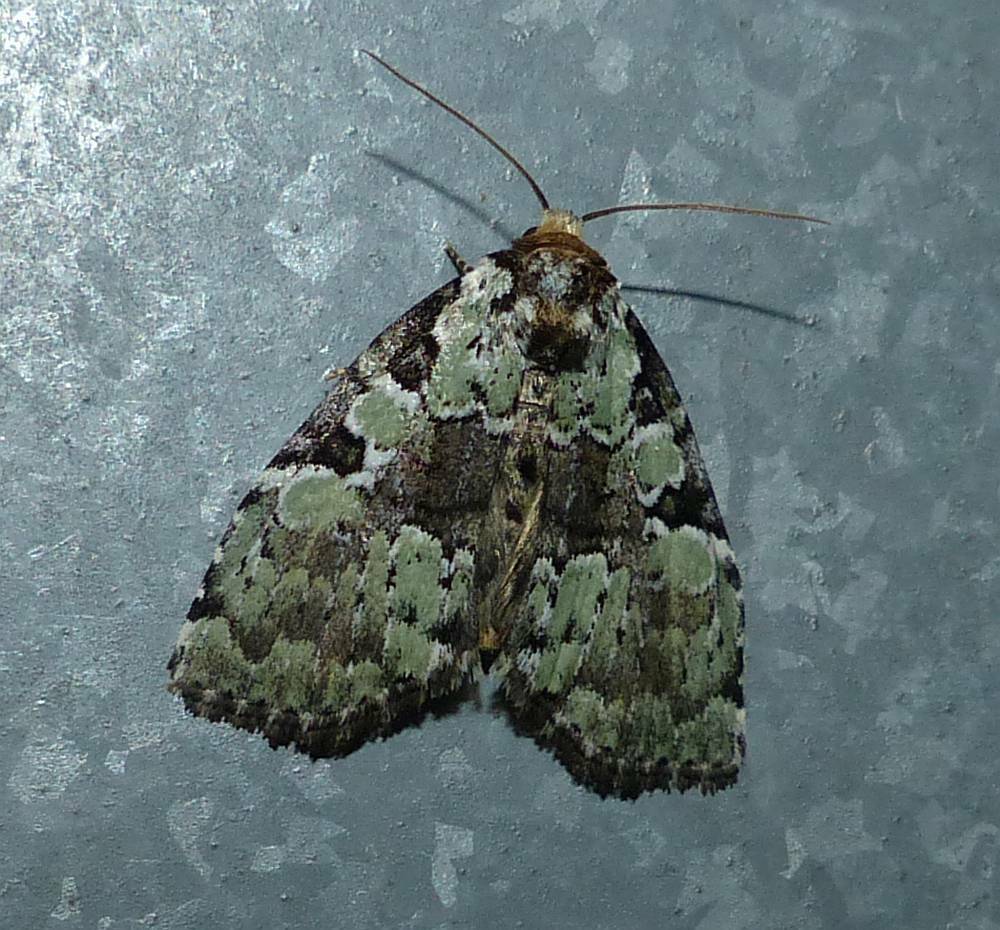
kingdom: Animalia
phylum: Arthropoda
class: Insecta
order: Lepidoptera
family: Noctuidae
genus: Leuconycta
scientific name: Leuconycta lepidula
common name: Marbled-green leuconycta moth
